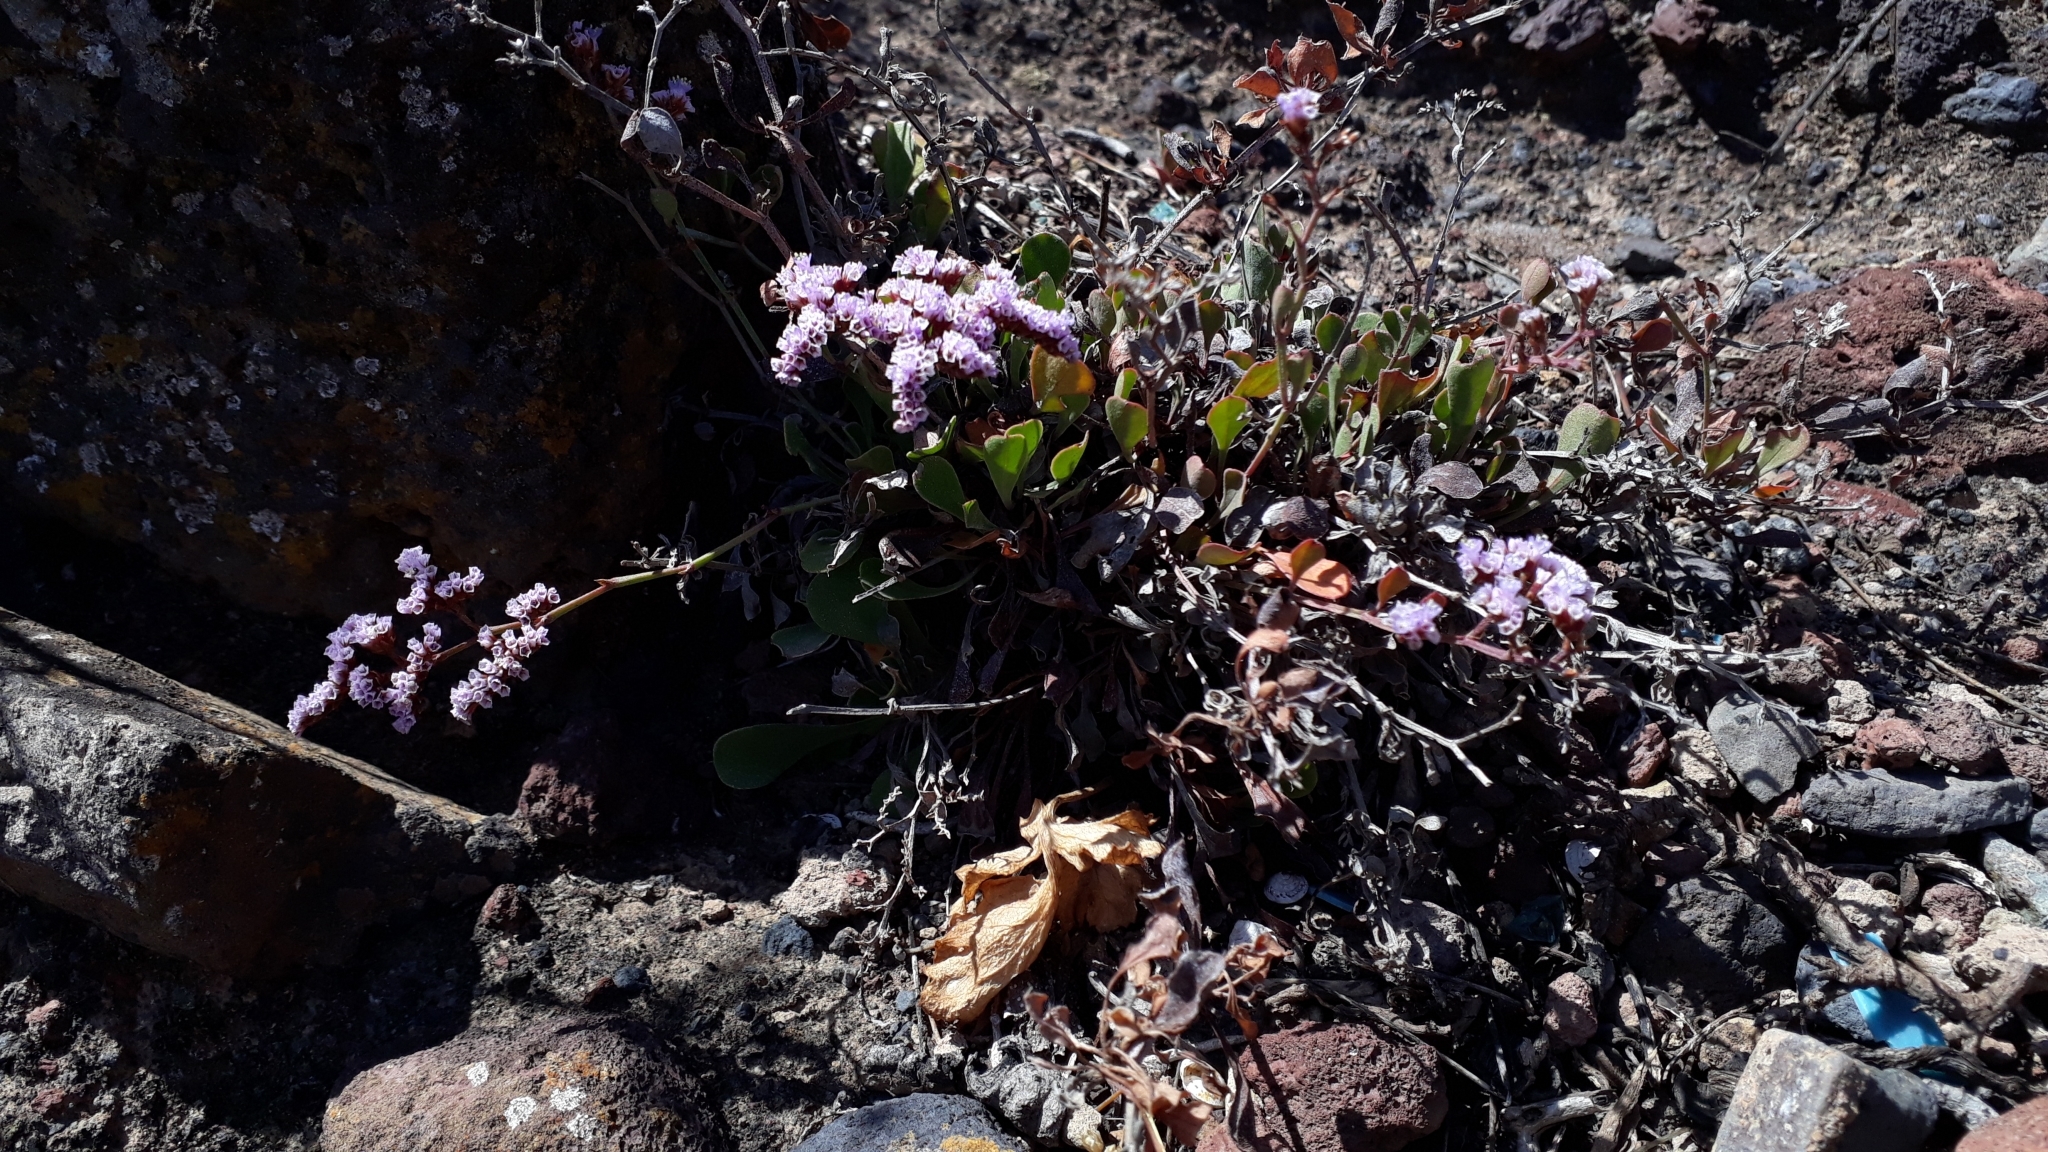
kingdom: Plantae
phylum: Tracheophyta
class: Magnoliopsida
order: Caryophyllales
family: Plumbaginaceae
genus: Limonium
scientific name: Limonium pectinatum
